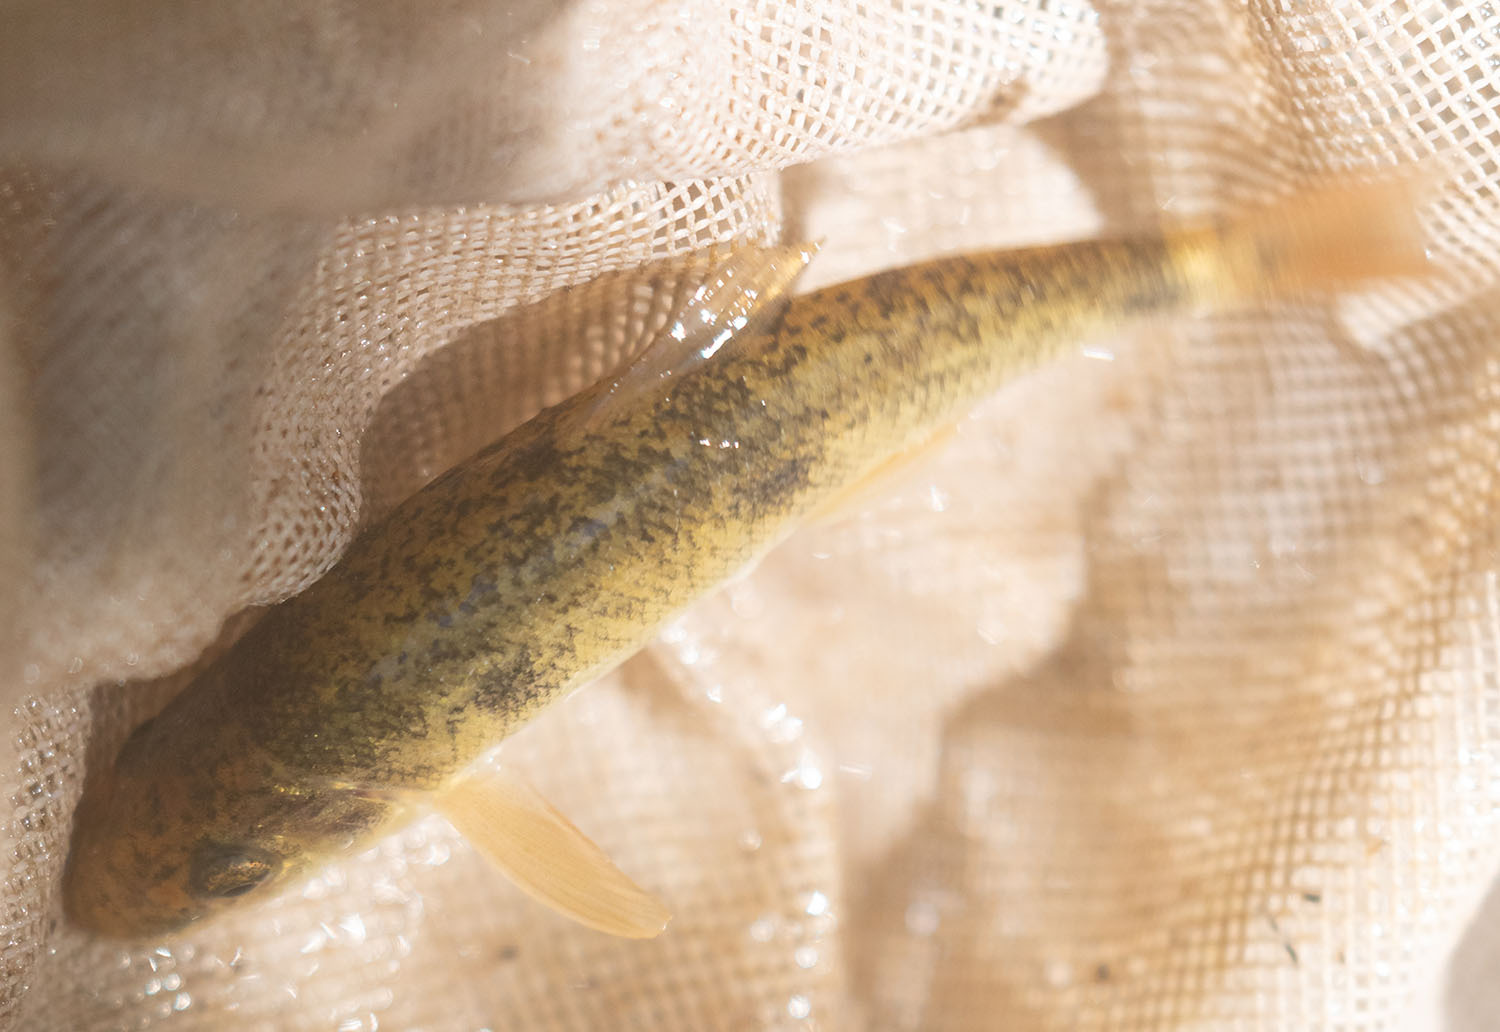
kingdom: Animalia
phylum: Chordata
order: Cypriniformes
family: Catostomidae
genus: Catostomus
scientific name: Catostomus occidentalis
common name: Goose lake sucker
